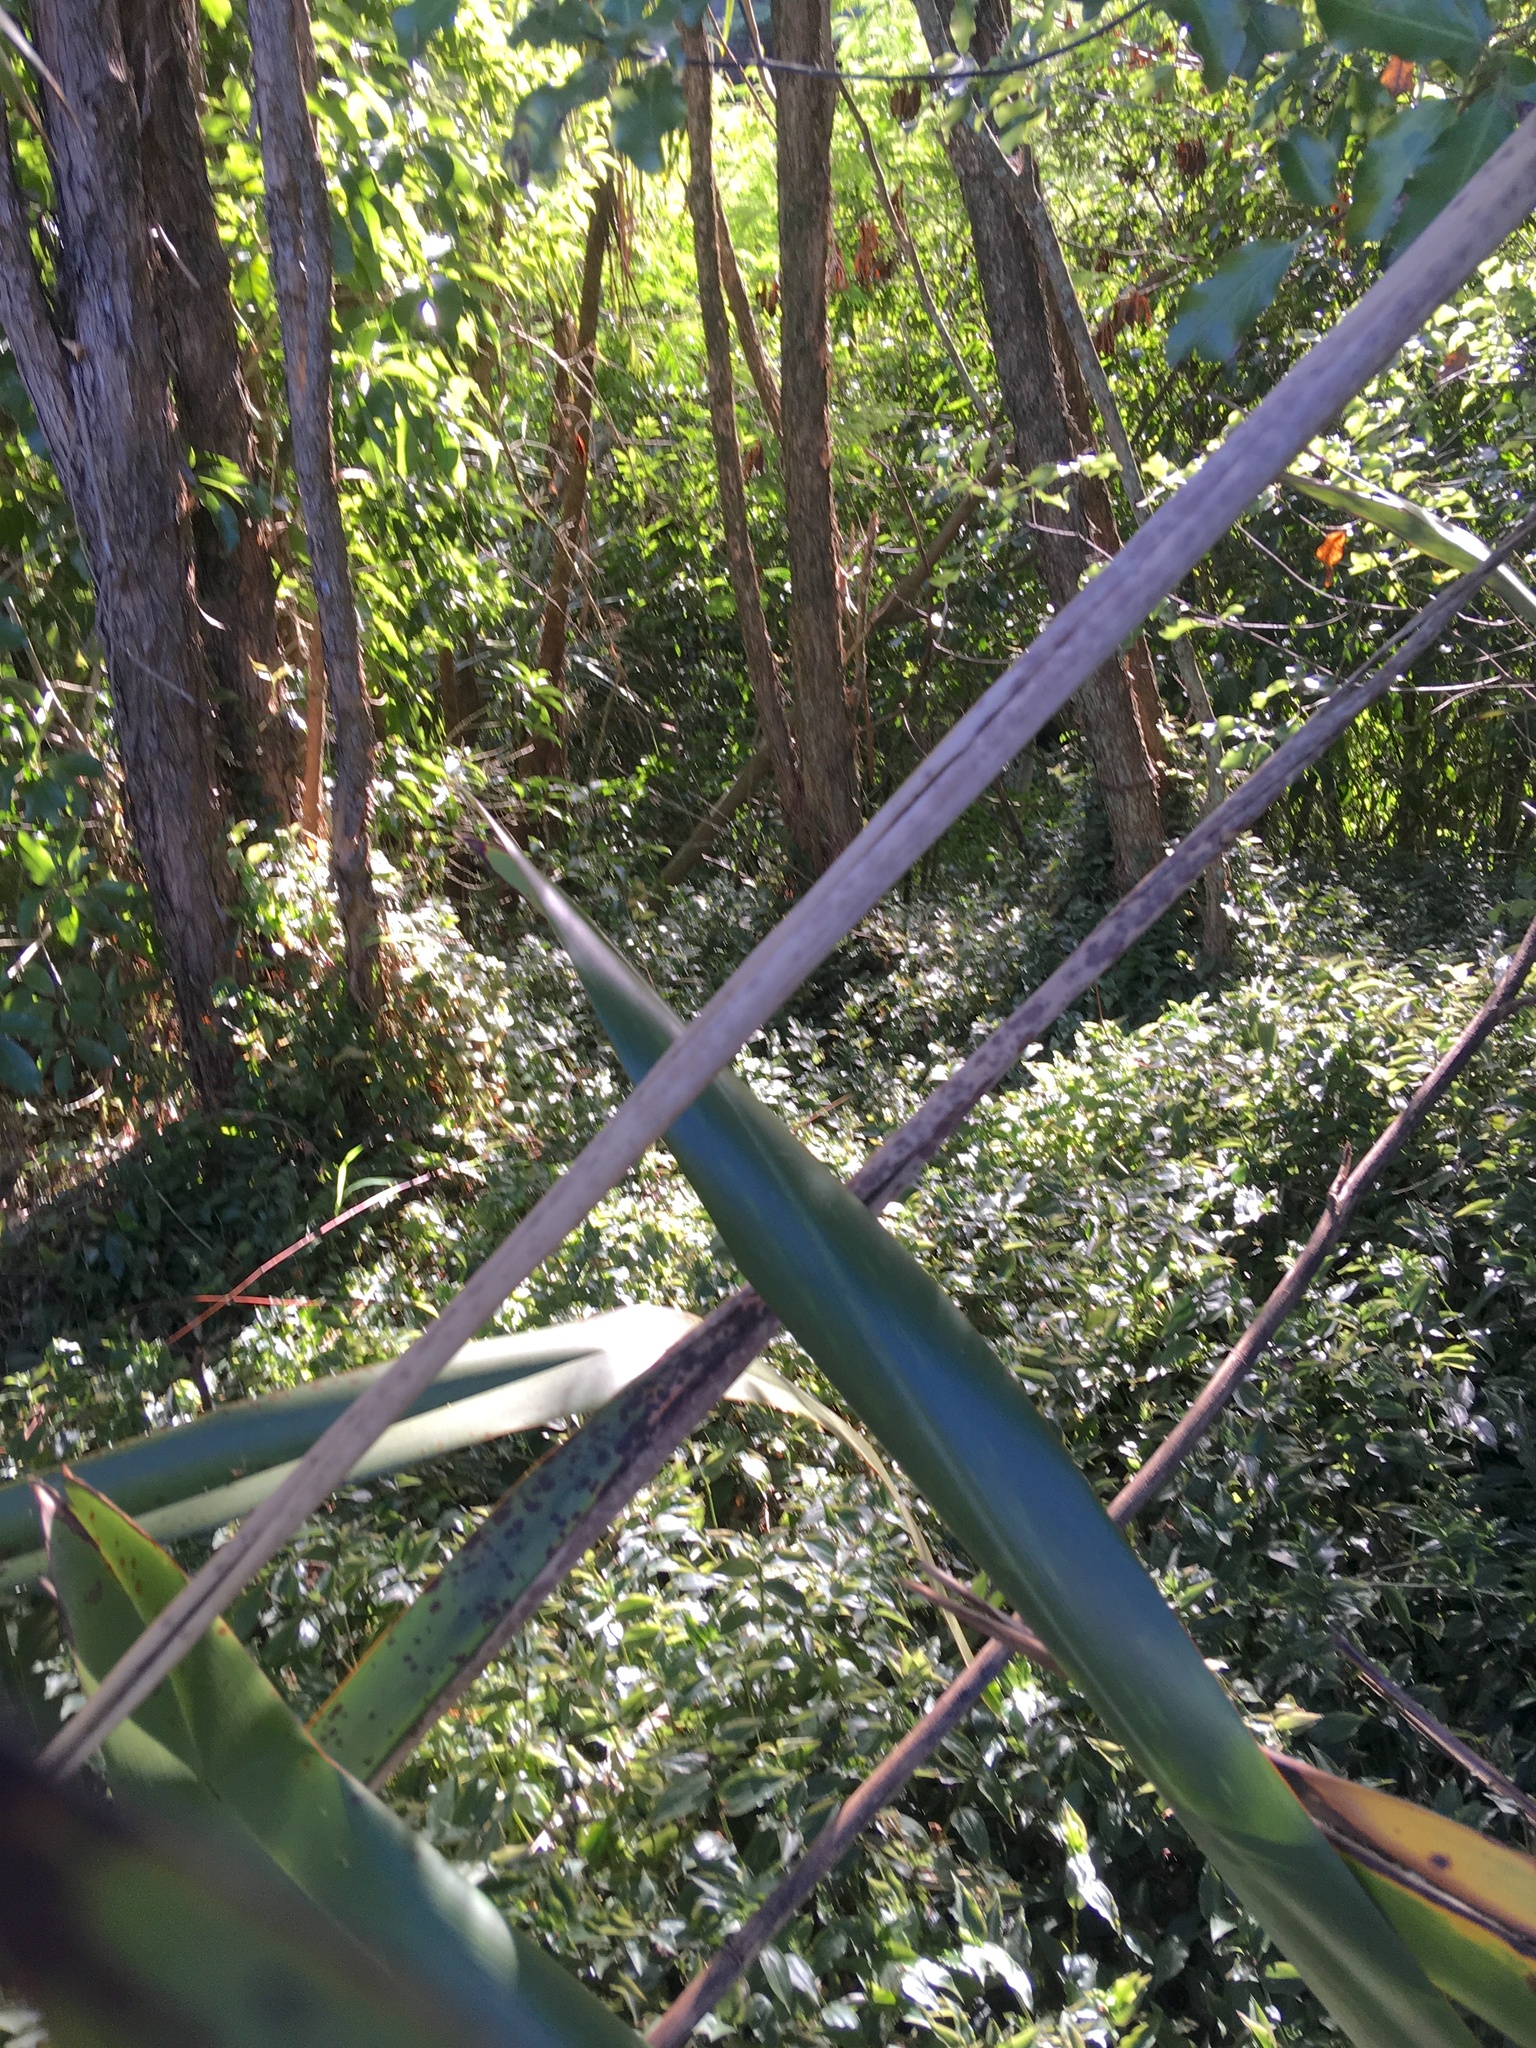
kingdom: Plantae
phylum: Tracheophyta
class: Liliopsida
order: Commelinales
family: Commelinaceae
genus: Tradescantia
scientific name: Tradescantia fluminensis
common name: Wandering-jew
